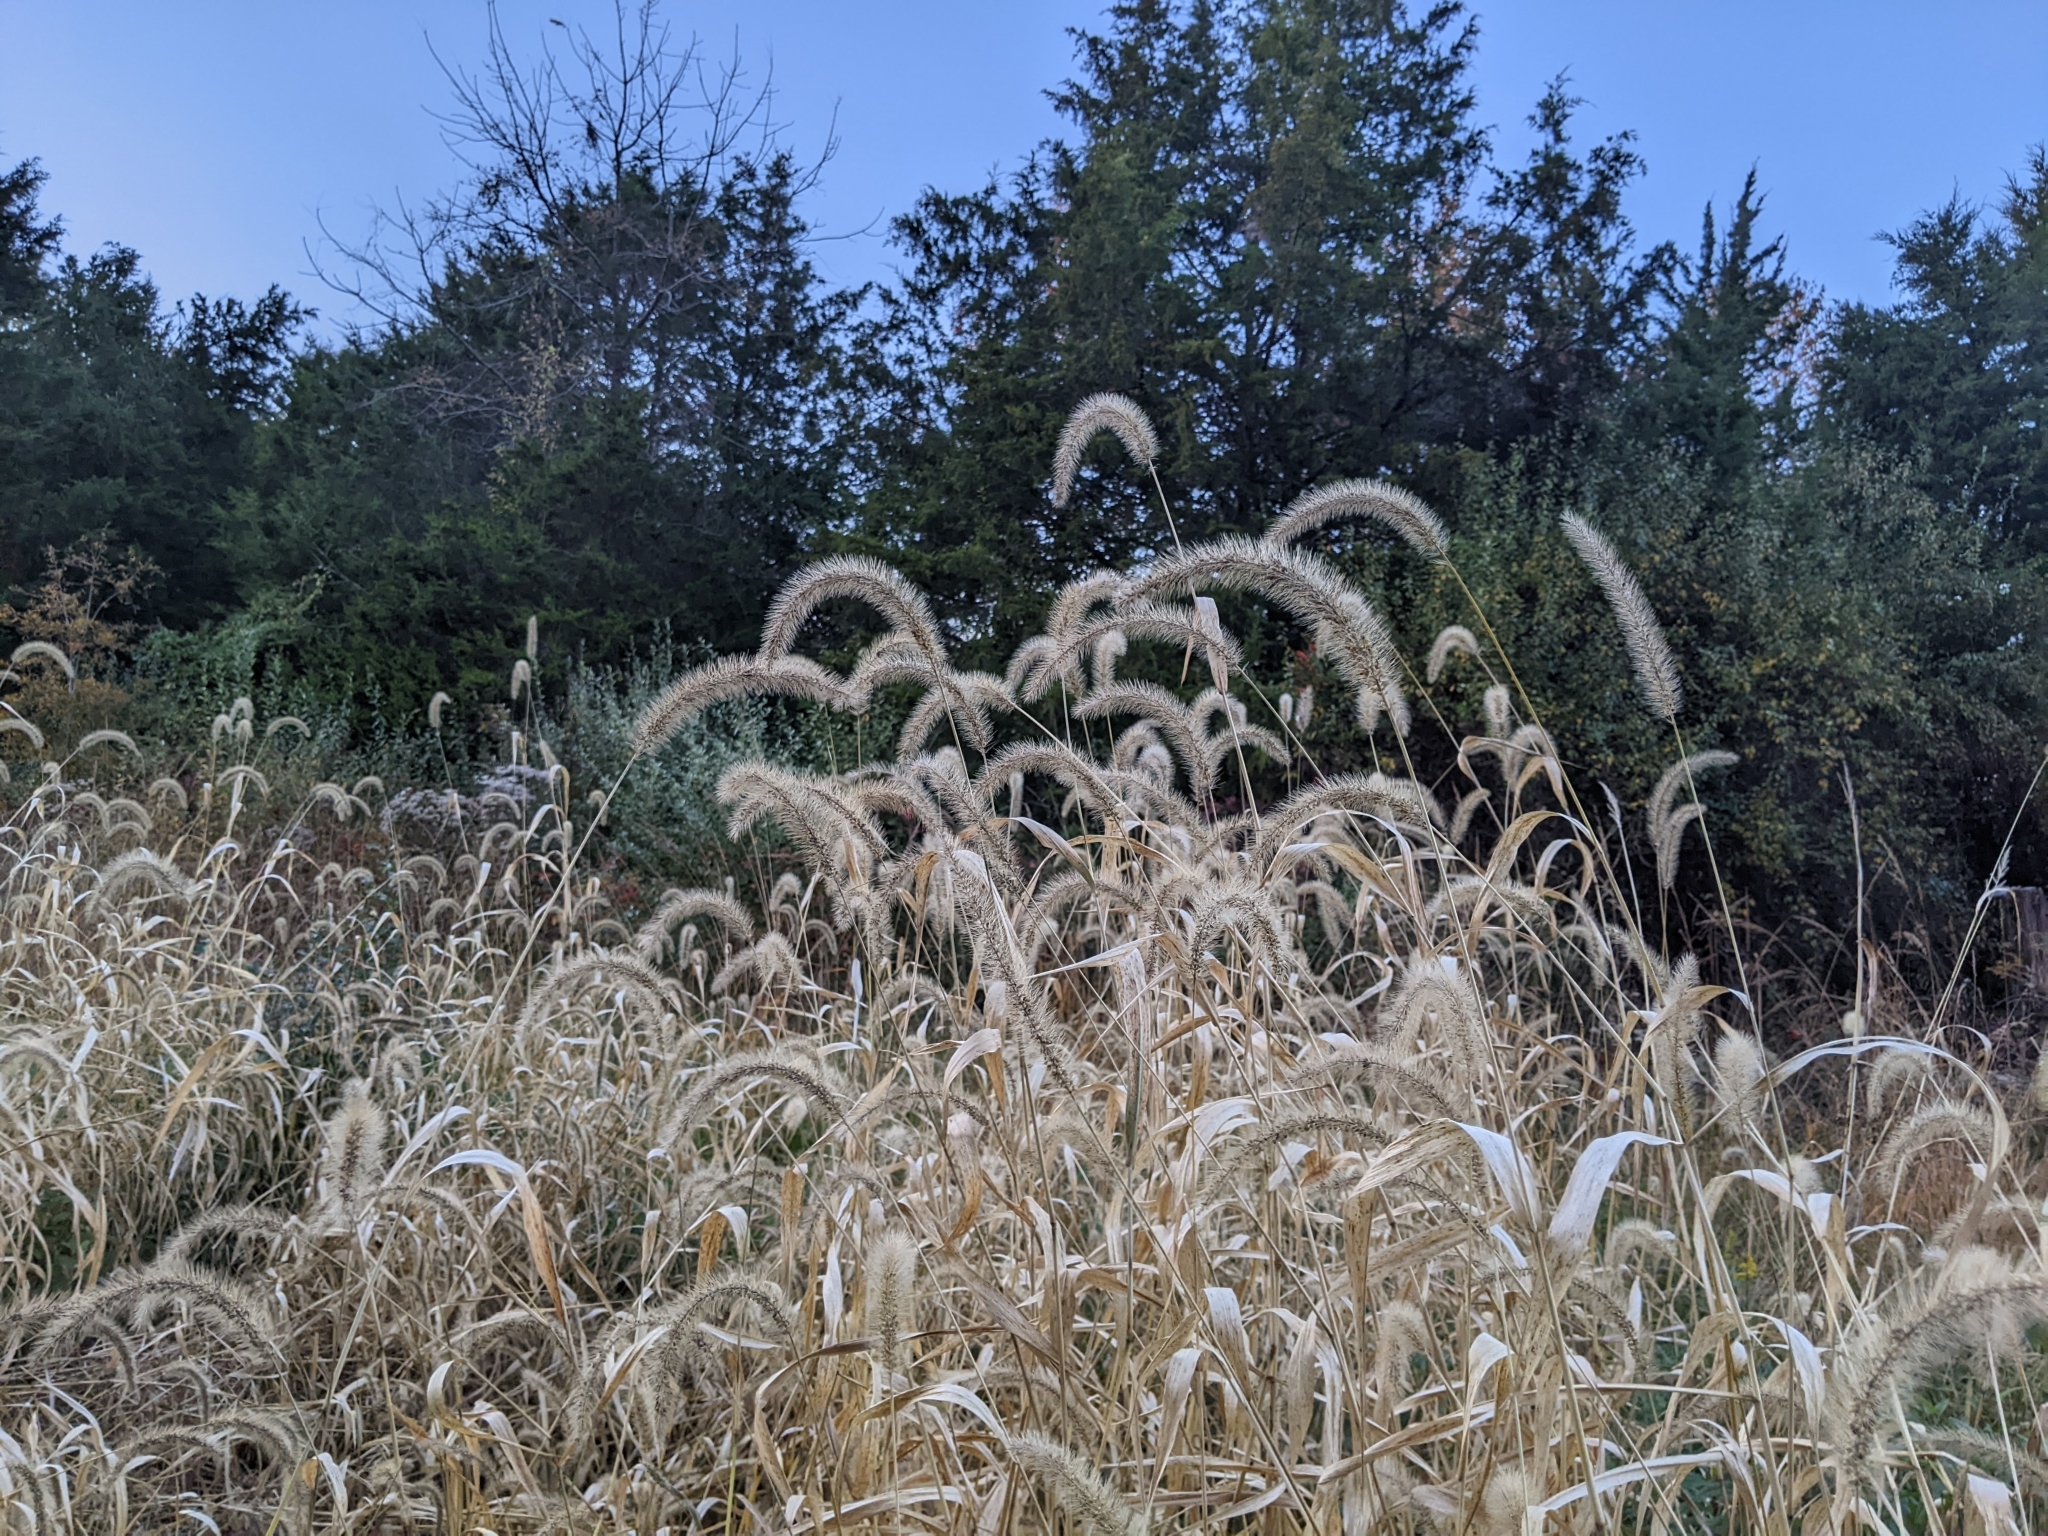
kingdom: Plantae
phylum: Tracheophyta
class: Liliopsida
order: Poales
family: Poaceae
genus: Setaria
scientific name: Setaria faberi
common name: Nodding bristle-grass
